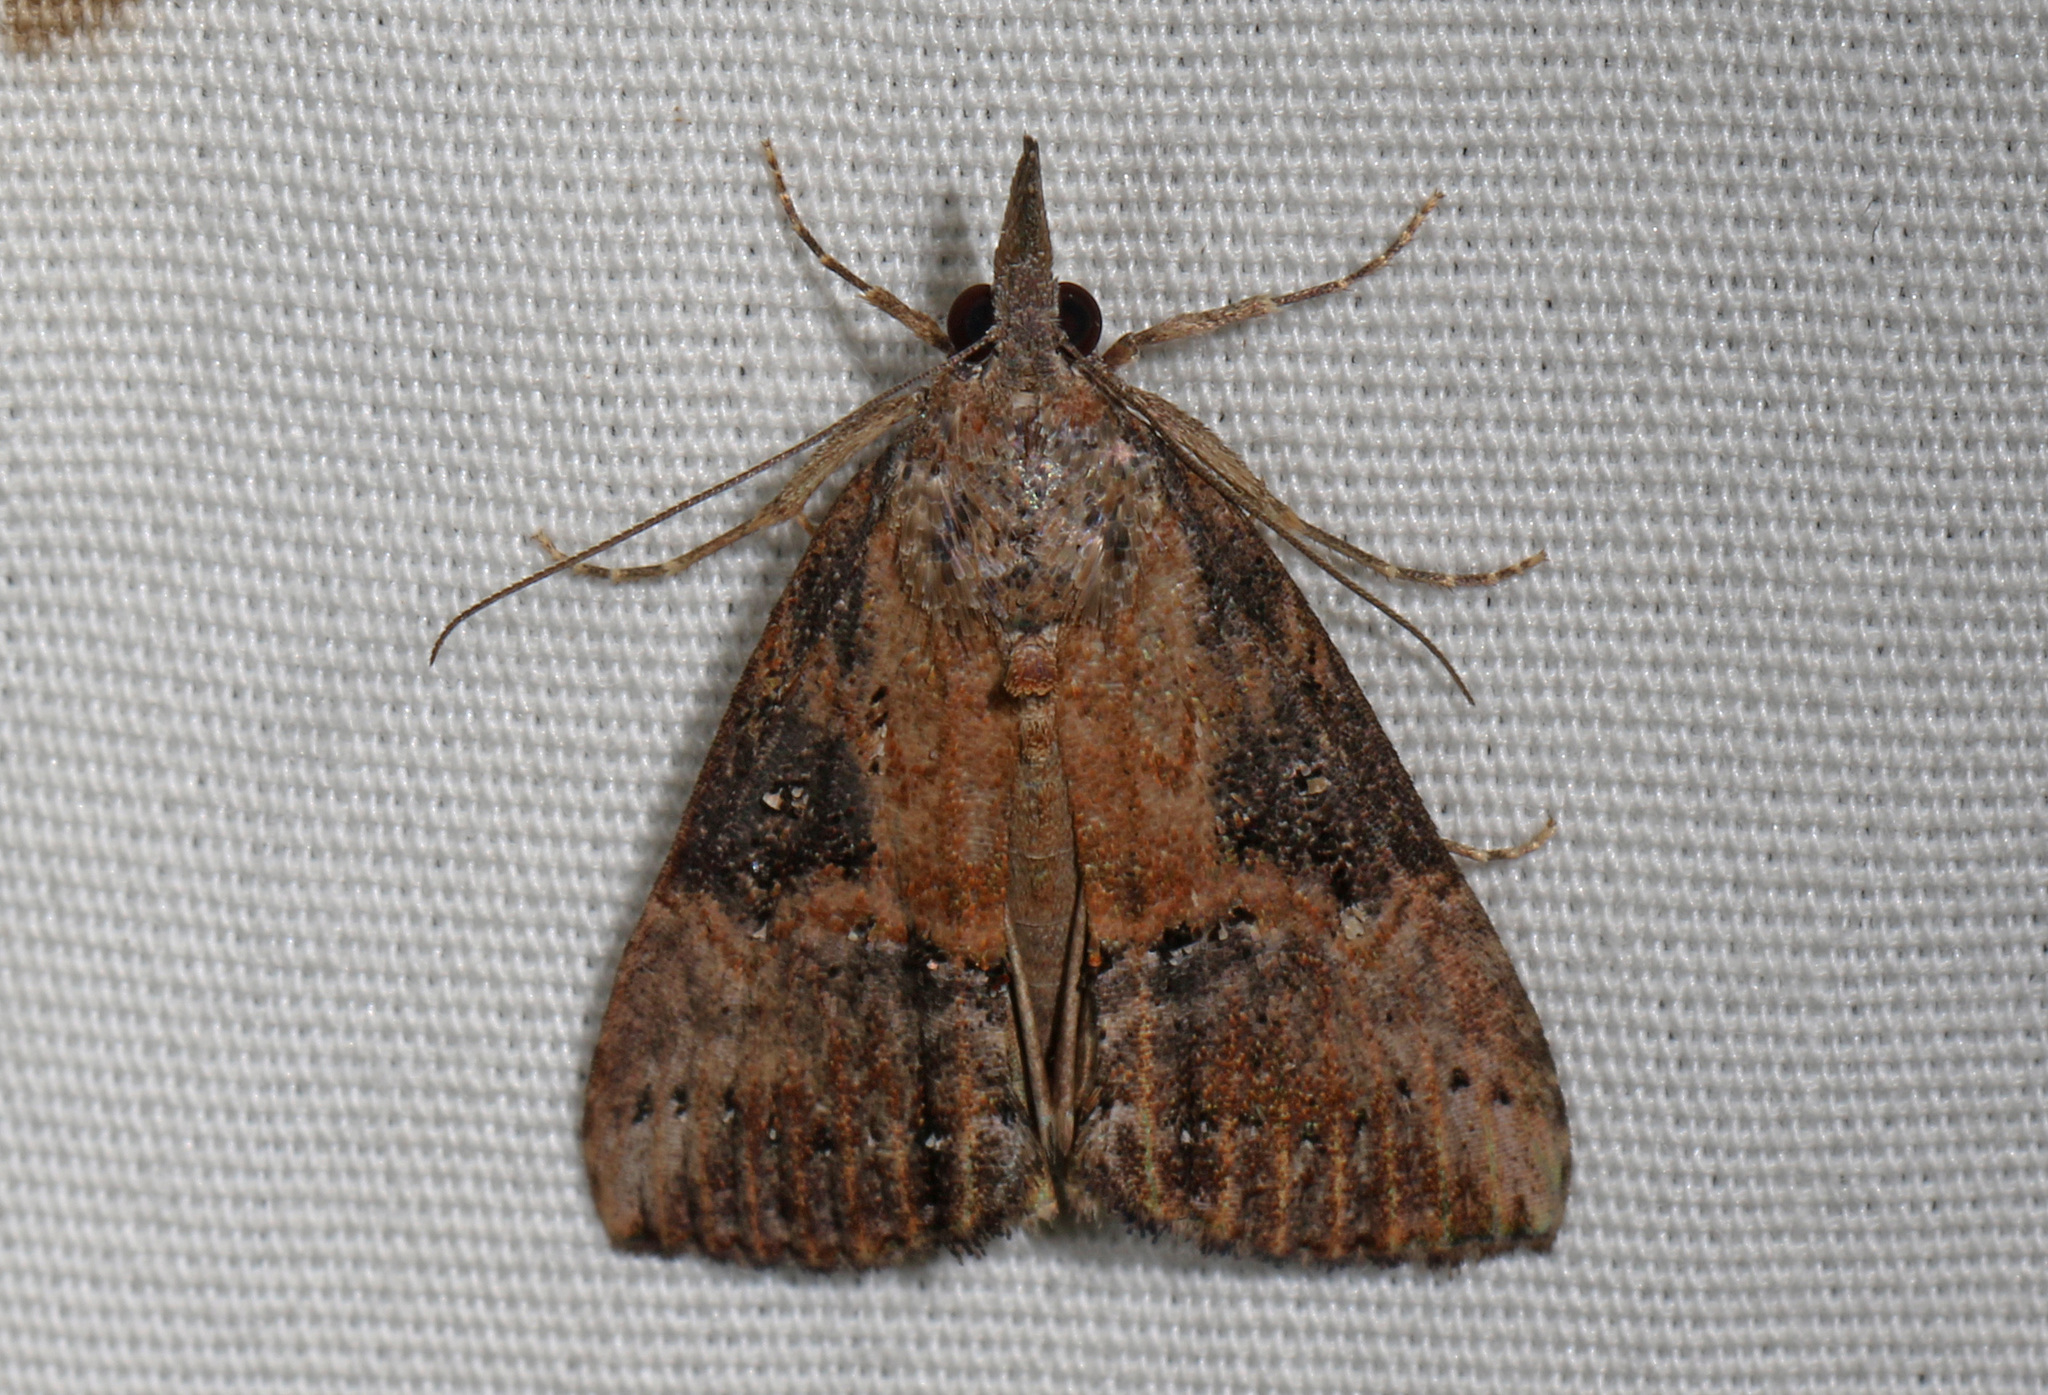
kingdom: Animalia
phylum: Arthropoda
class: Insecta
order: Lepidoptera
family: Erebidae
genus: Hypena
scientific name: Hypena scabra
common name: Green cloverworm
